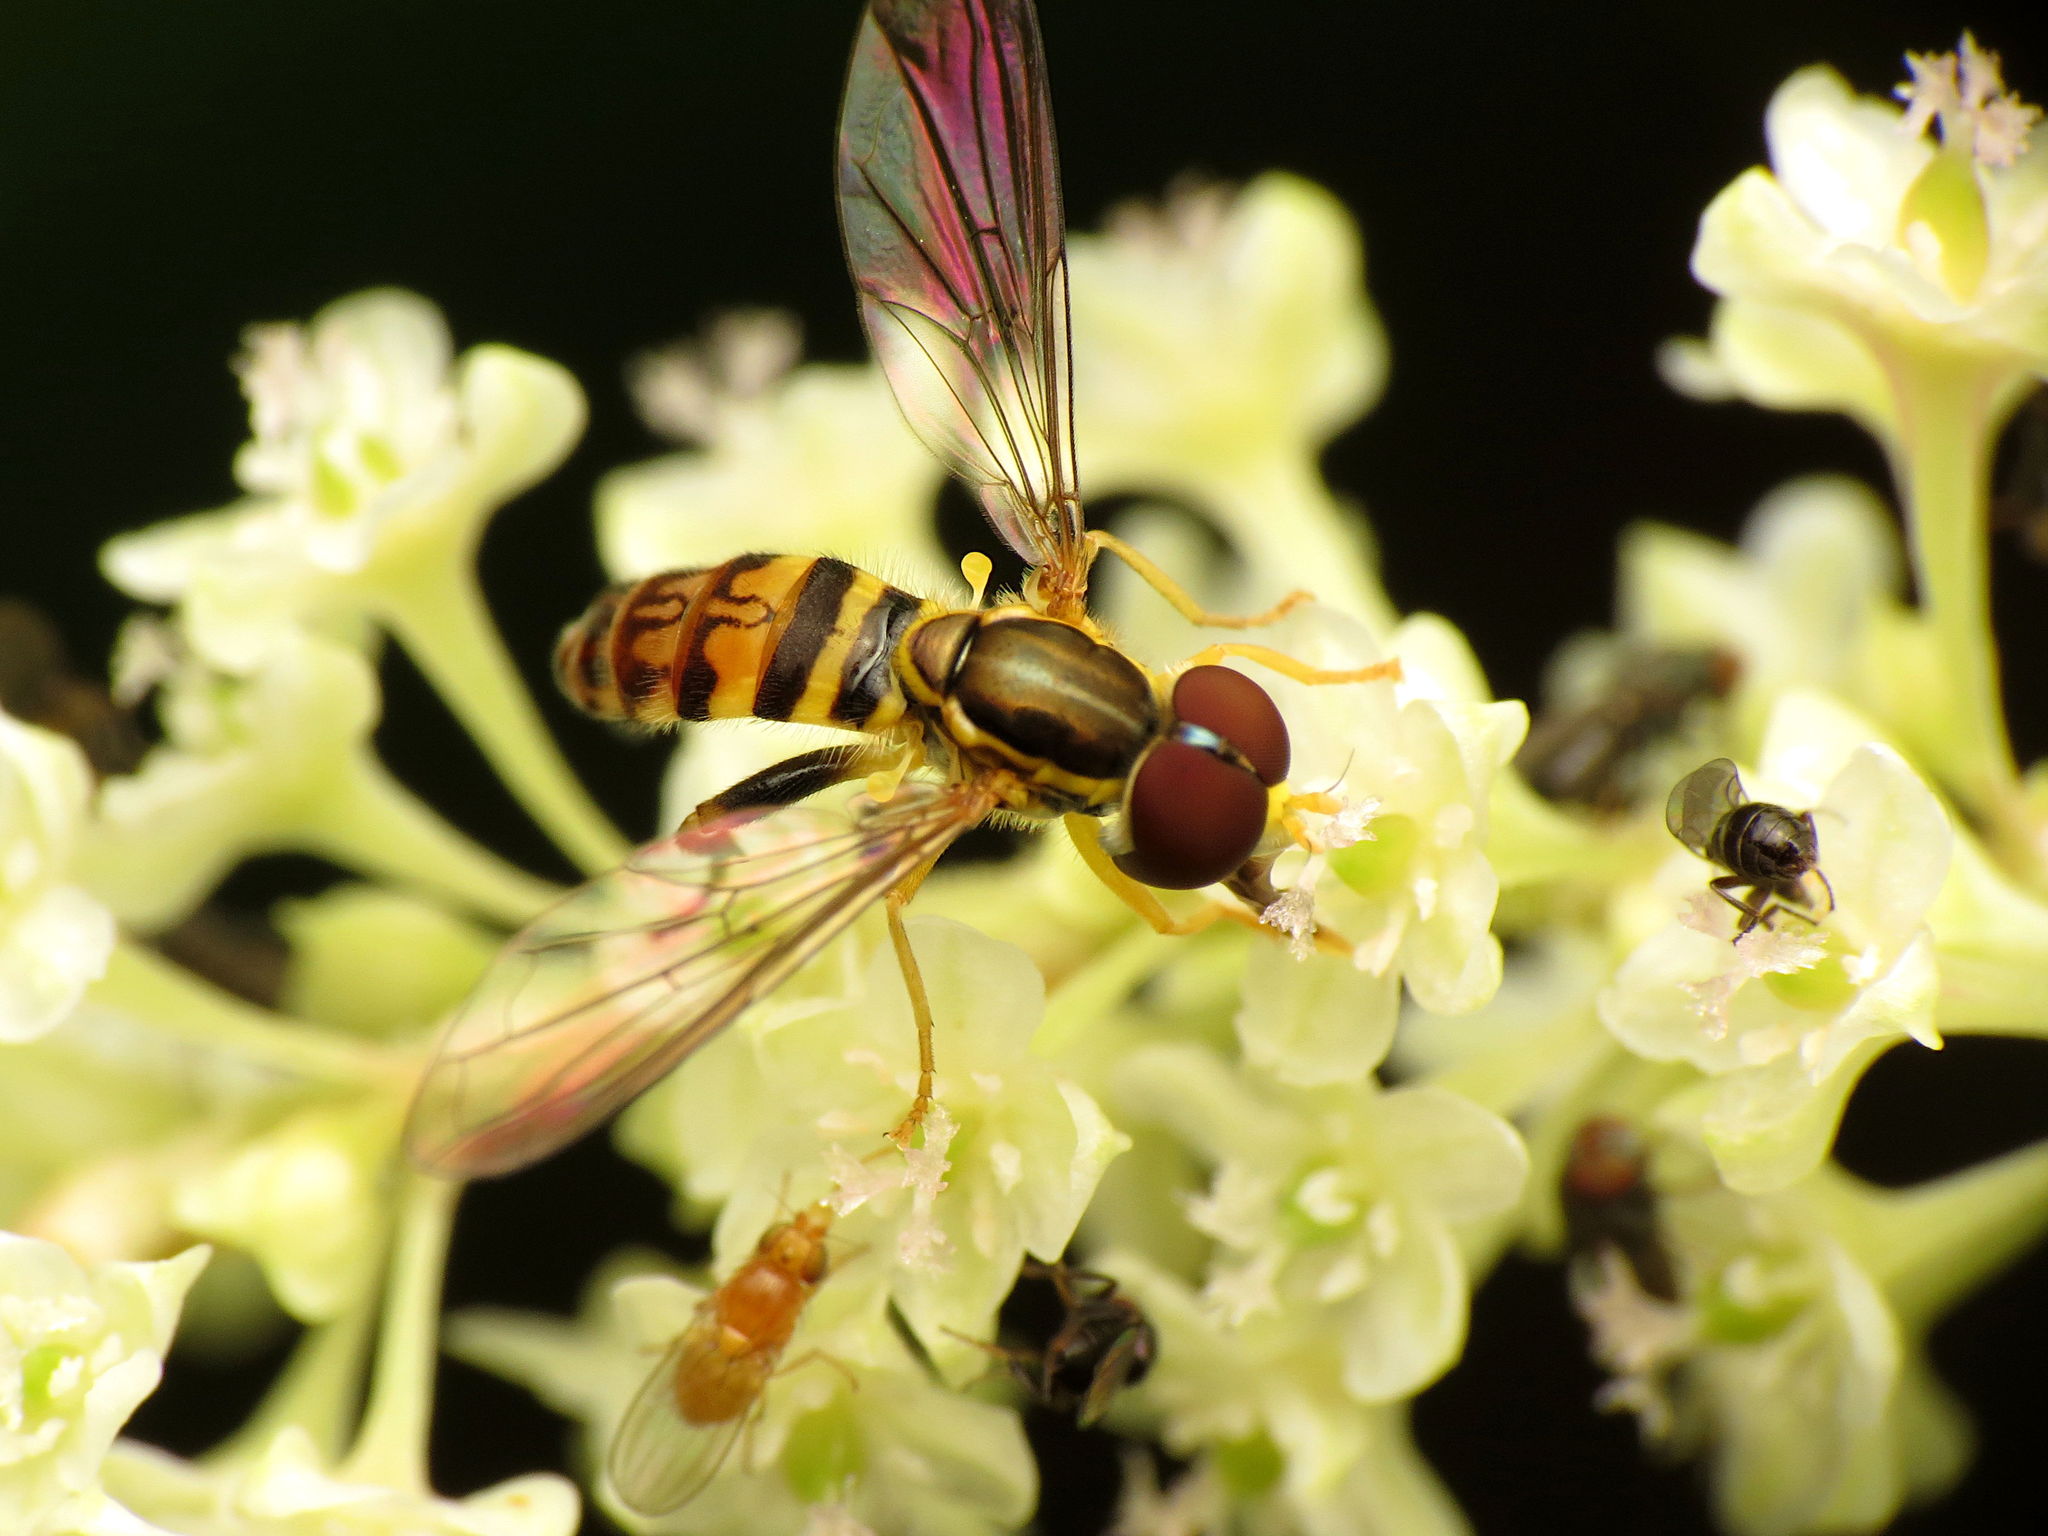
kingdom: Animalia
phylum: Arthropoda
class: Insecta
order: Diptera
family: Syrphidae
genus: Toxomerus
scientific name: Toxomerus geminatus
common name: Eastern calligrapher
